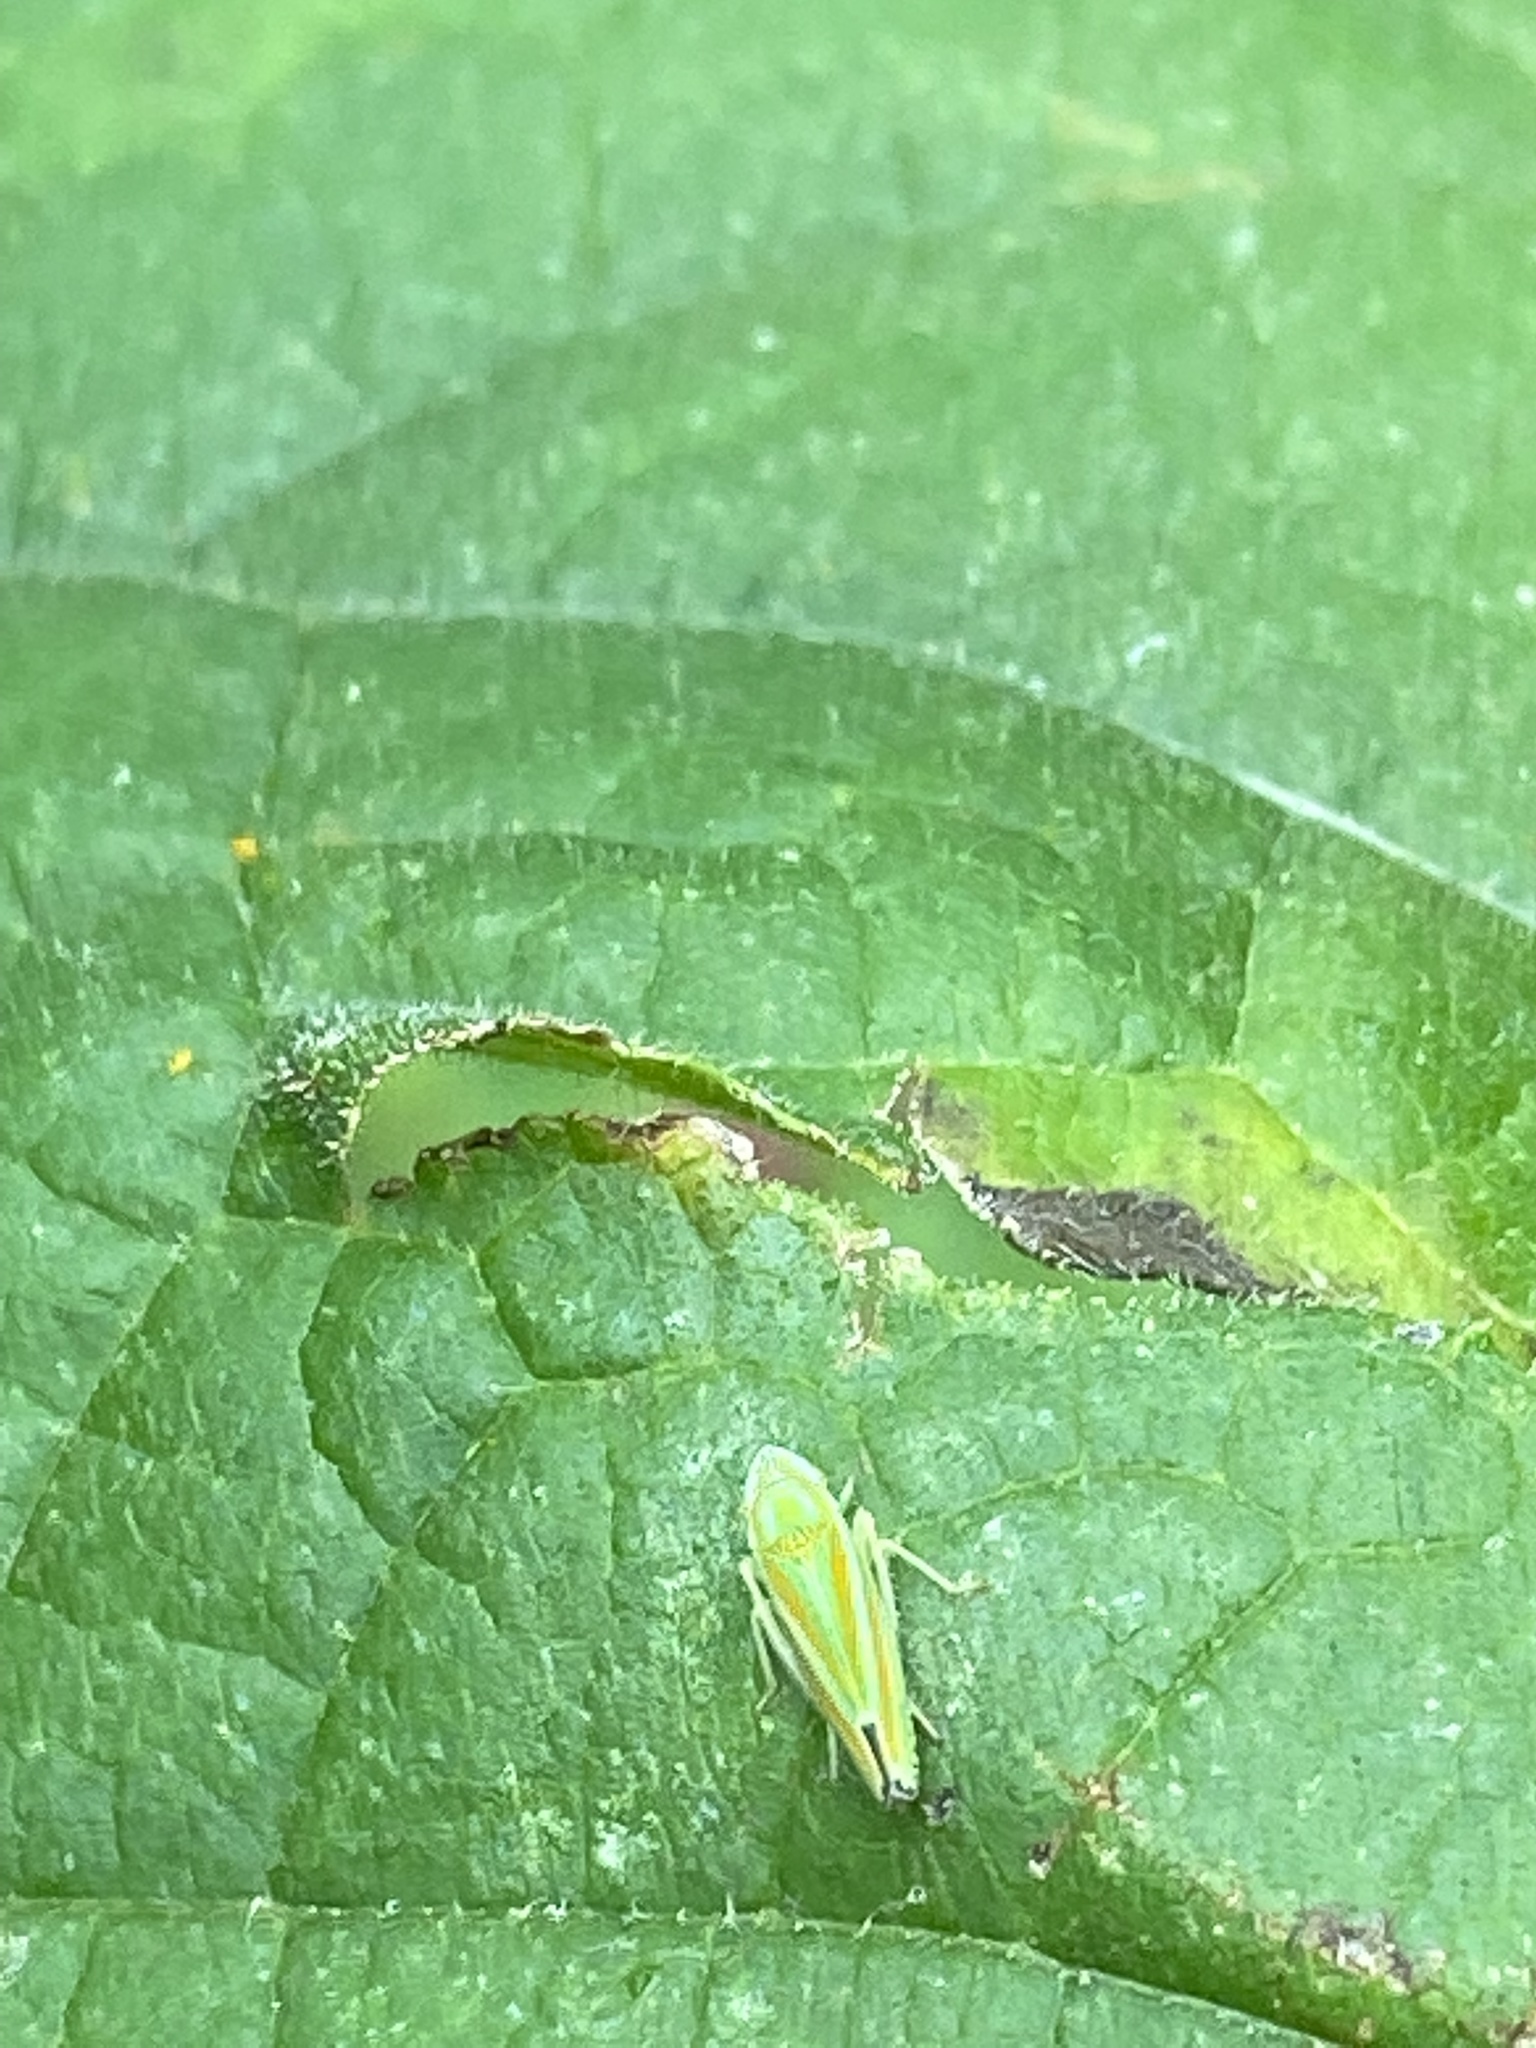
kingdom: Animalia
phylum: Arthropoda
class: Insecta
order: Hemiptera
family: Cicadellidae
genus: Graphocephala
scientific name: Graphocephala versuta
